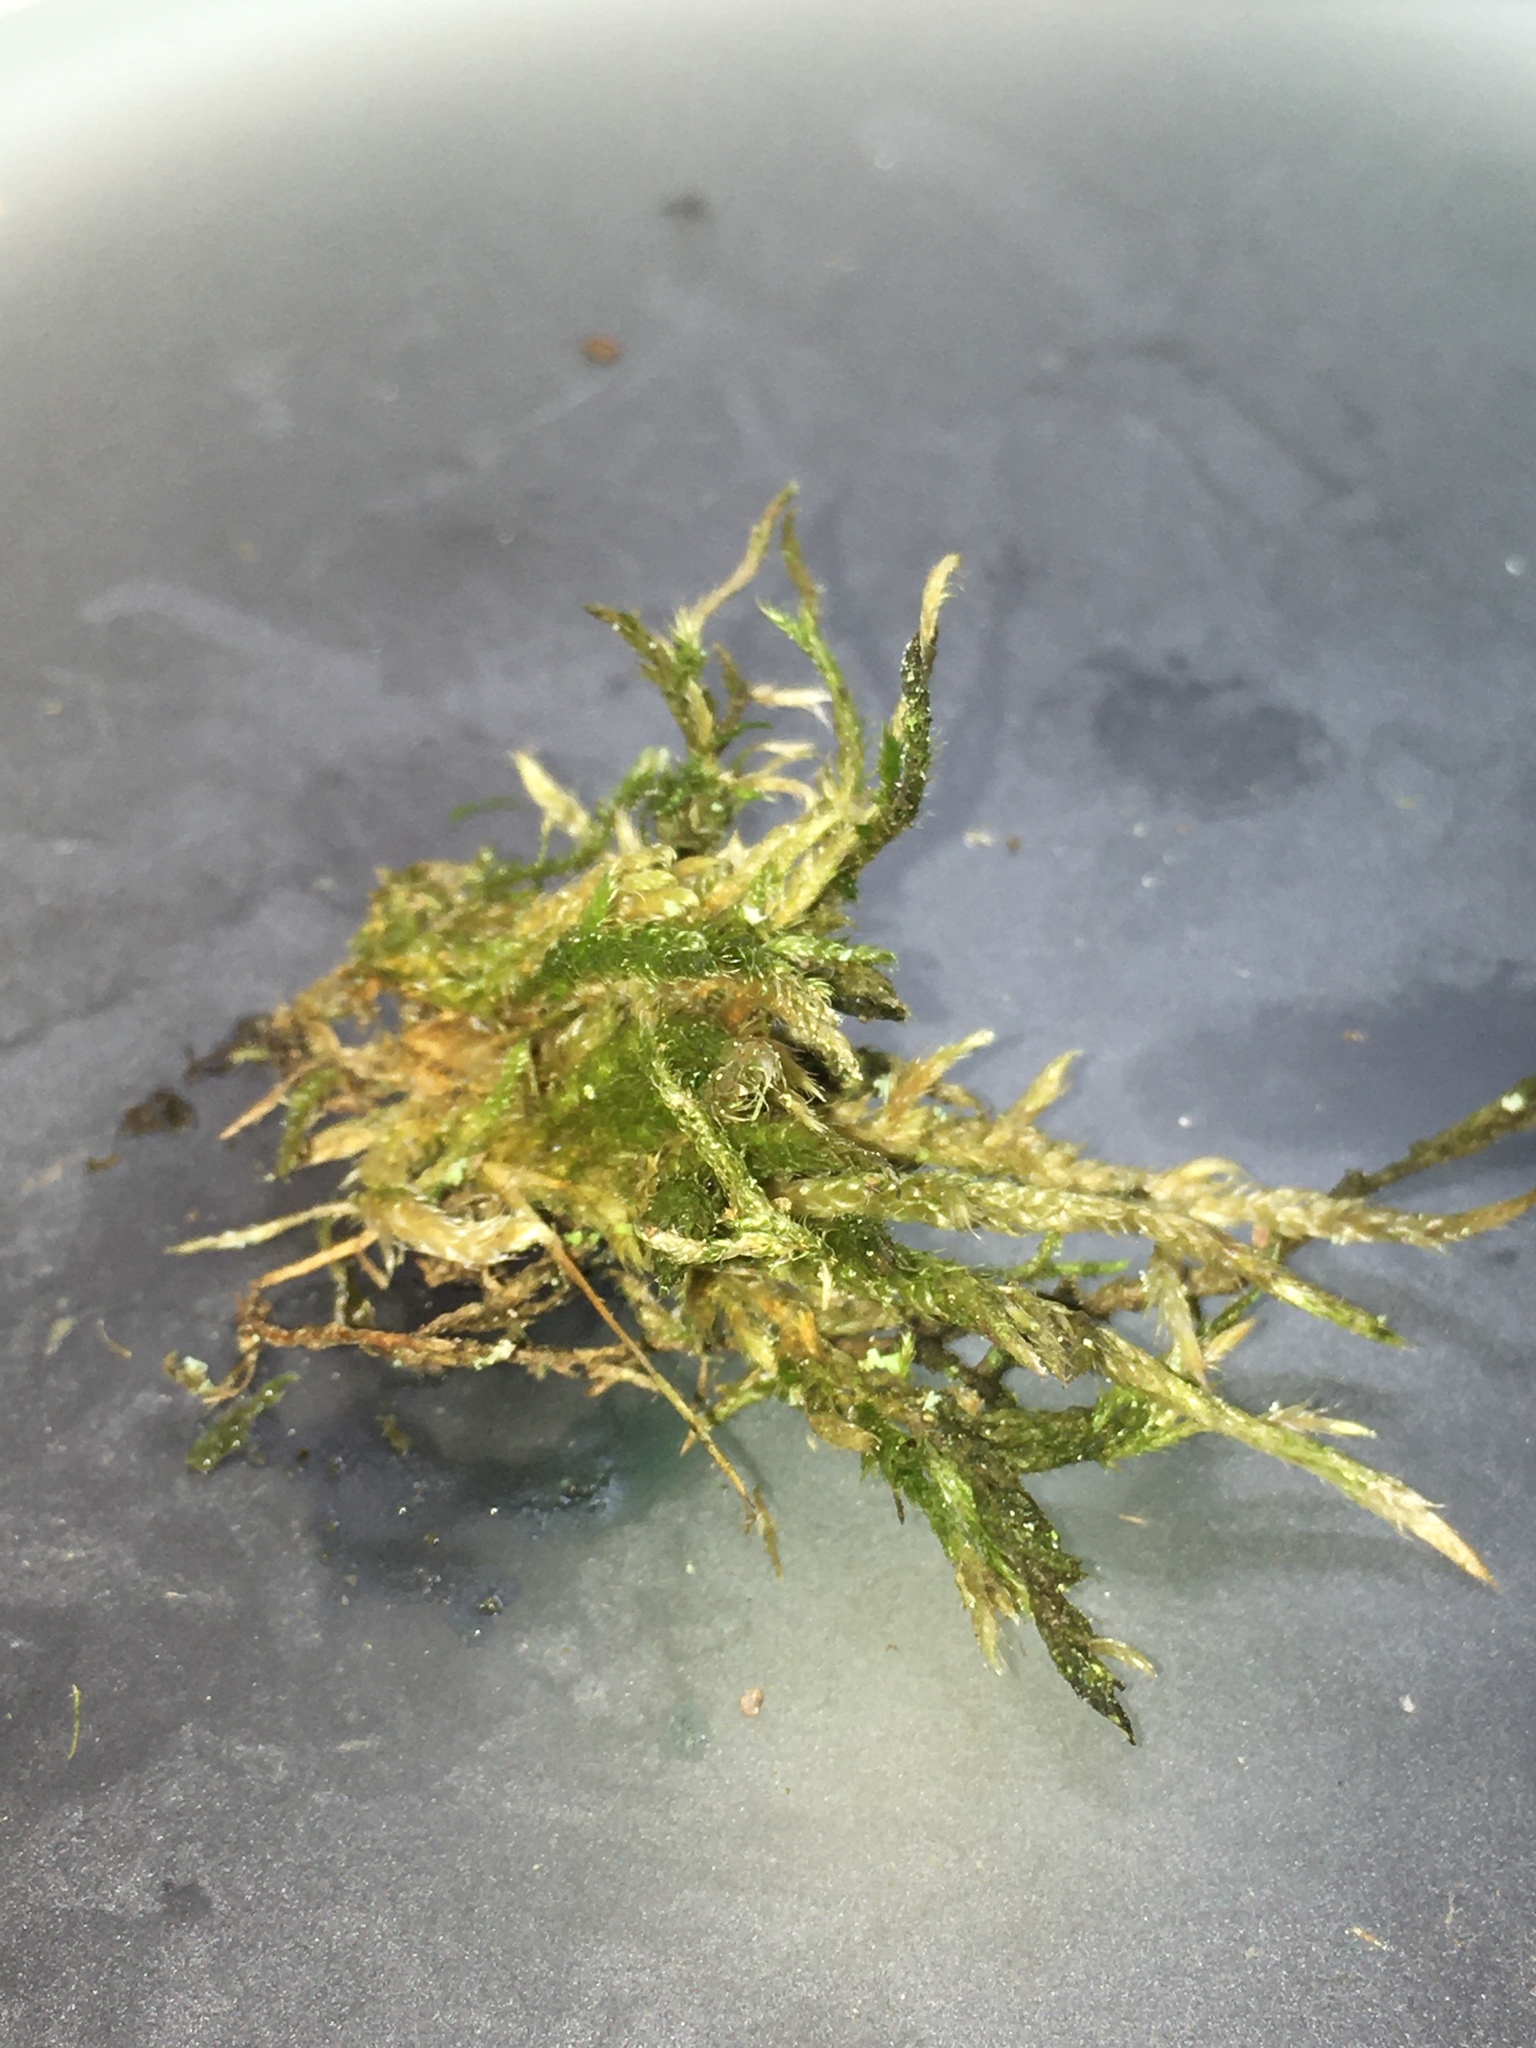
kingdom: Plantae
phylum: Bryophyta
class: Bryopsida
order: Hypnales
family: Hypnaceae
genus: Hypnum
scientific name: Hypnum cupressiforme
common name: Cypress-leaved plait-moss
